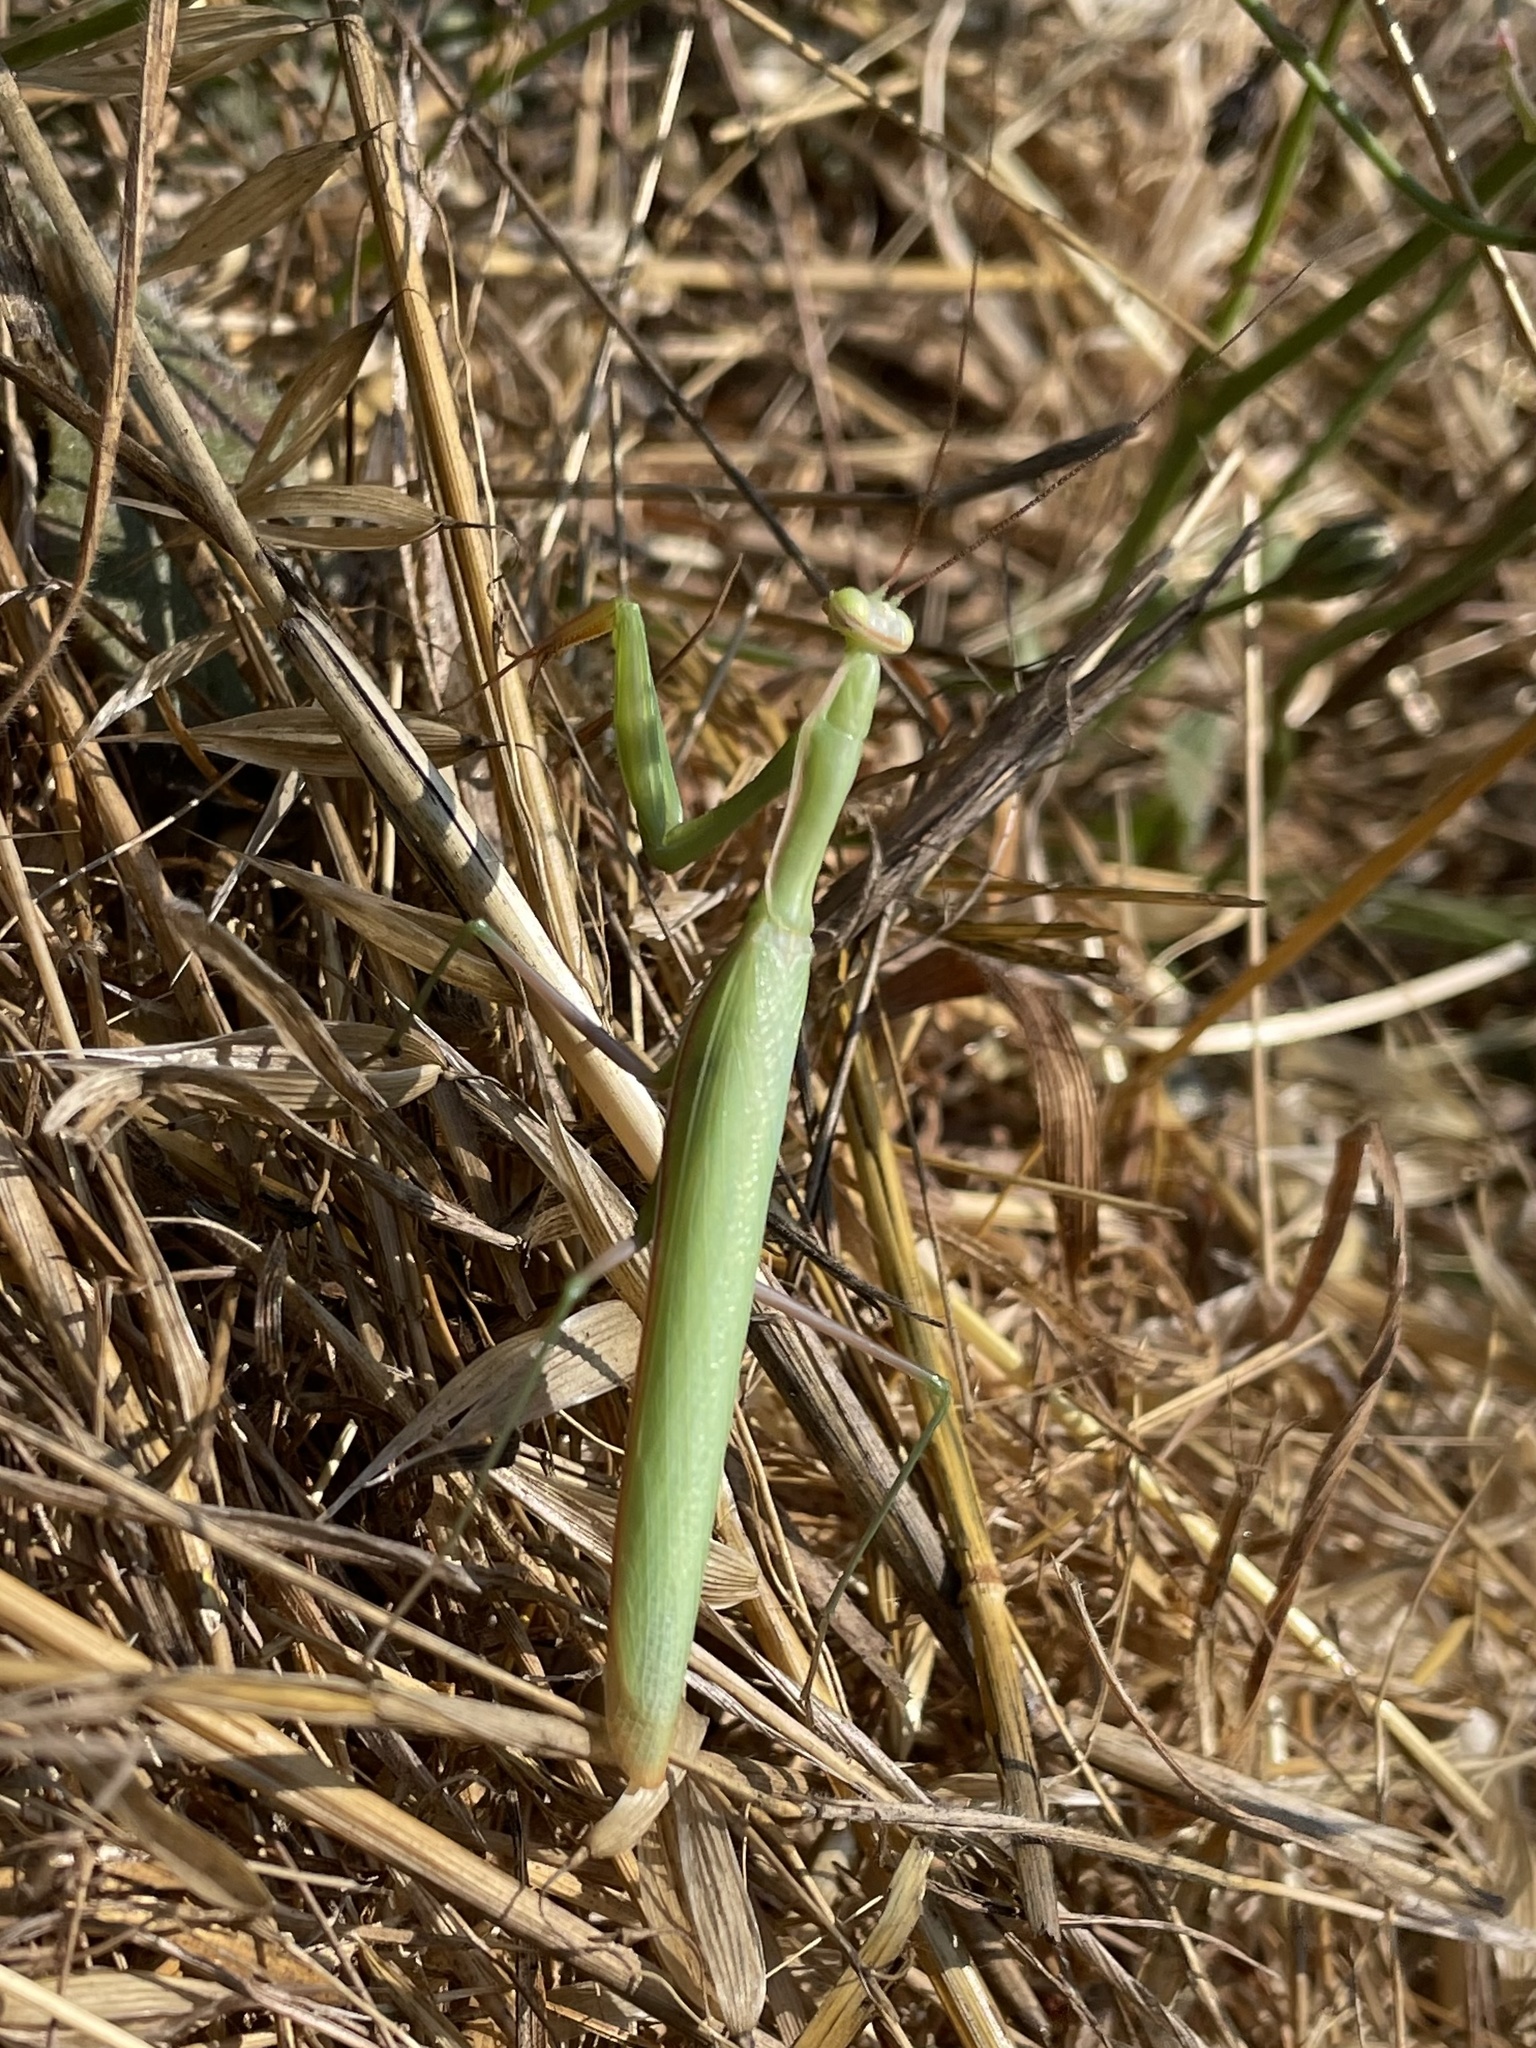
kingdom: Animalia
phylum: Arthropoda
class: Insecta
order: Mantodea
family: Mantidae
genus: Mantis
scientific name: Mantis religiosa
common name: Praying mantis
